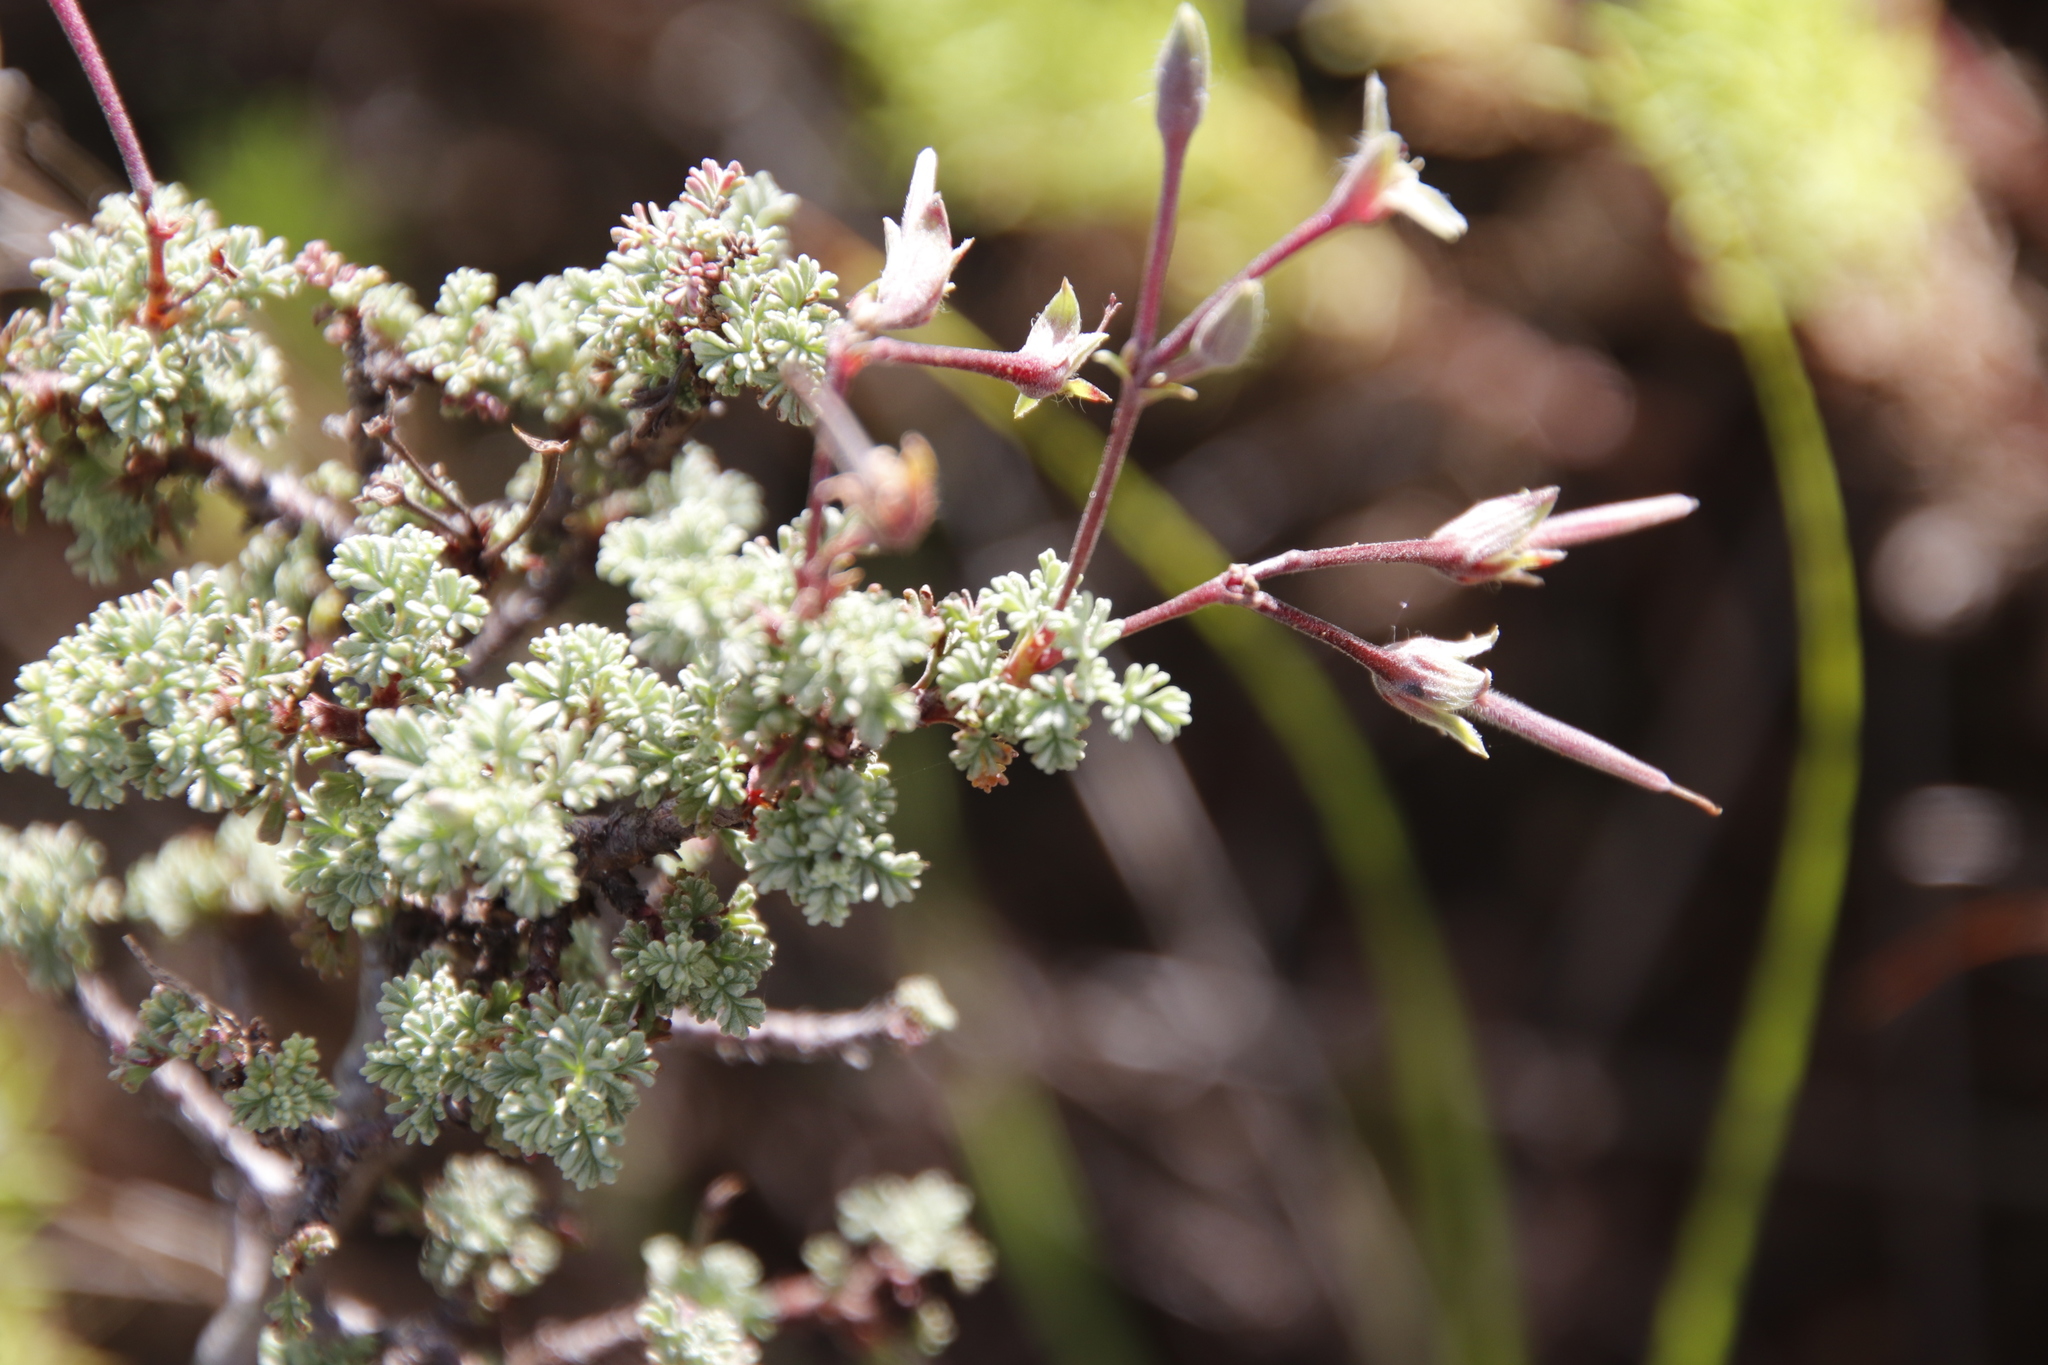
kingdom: Plantae
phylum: Tracheophyta
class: Magnoliopsida
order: Geraniales
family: Geraniaceae
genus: Pelargonium
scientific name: Pelargonium abrotanifolium
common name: Southernwood geranium
